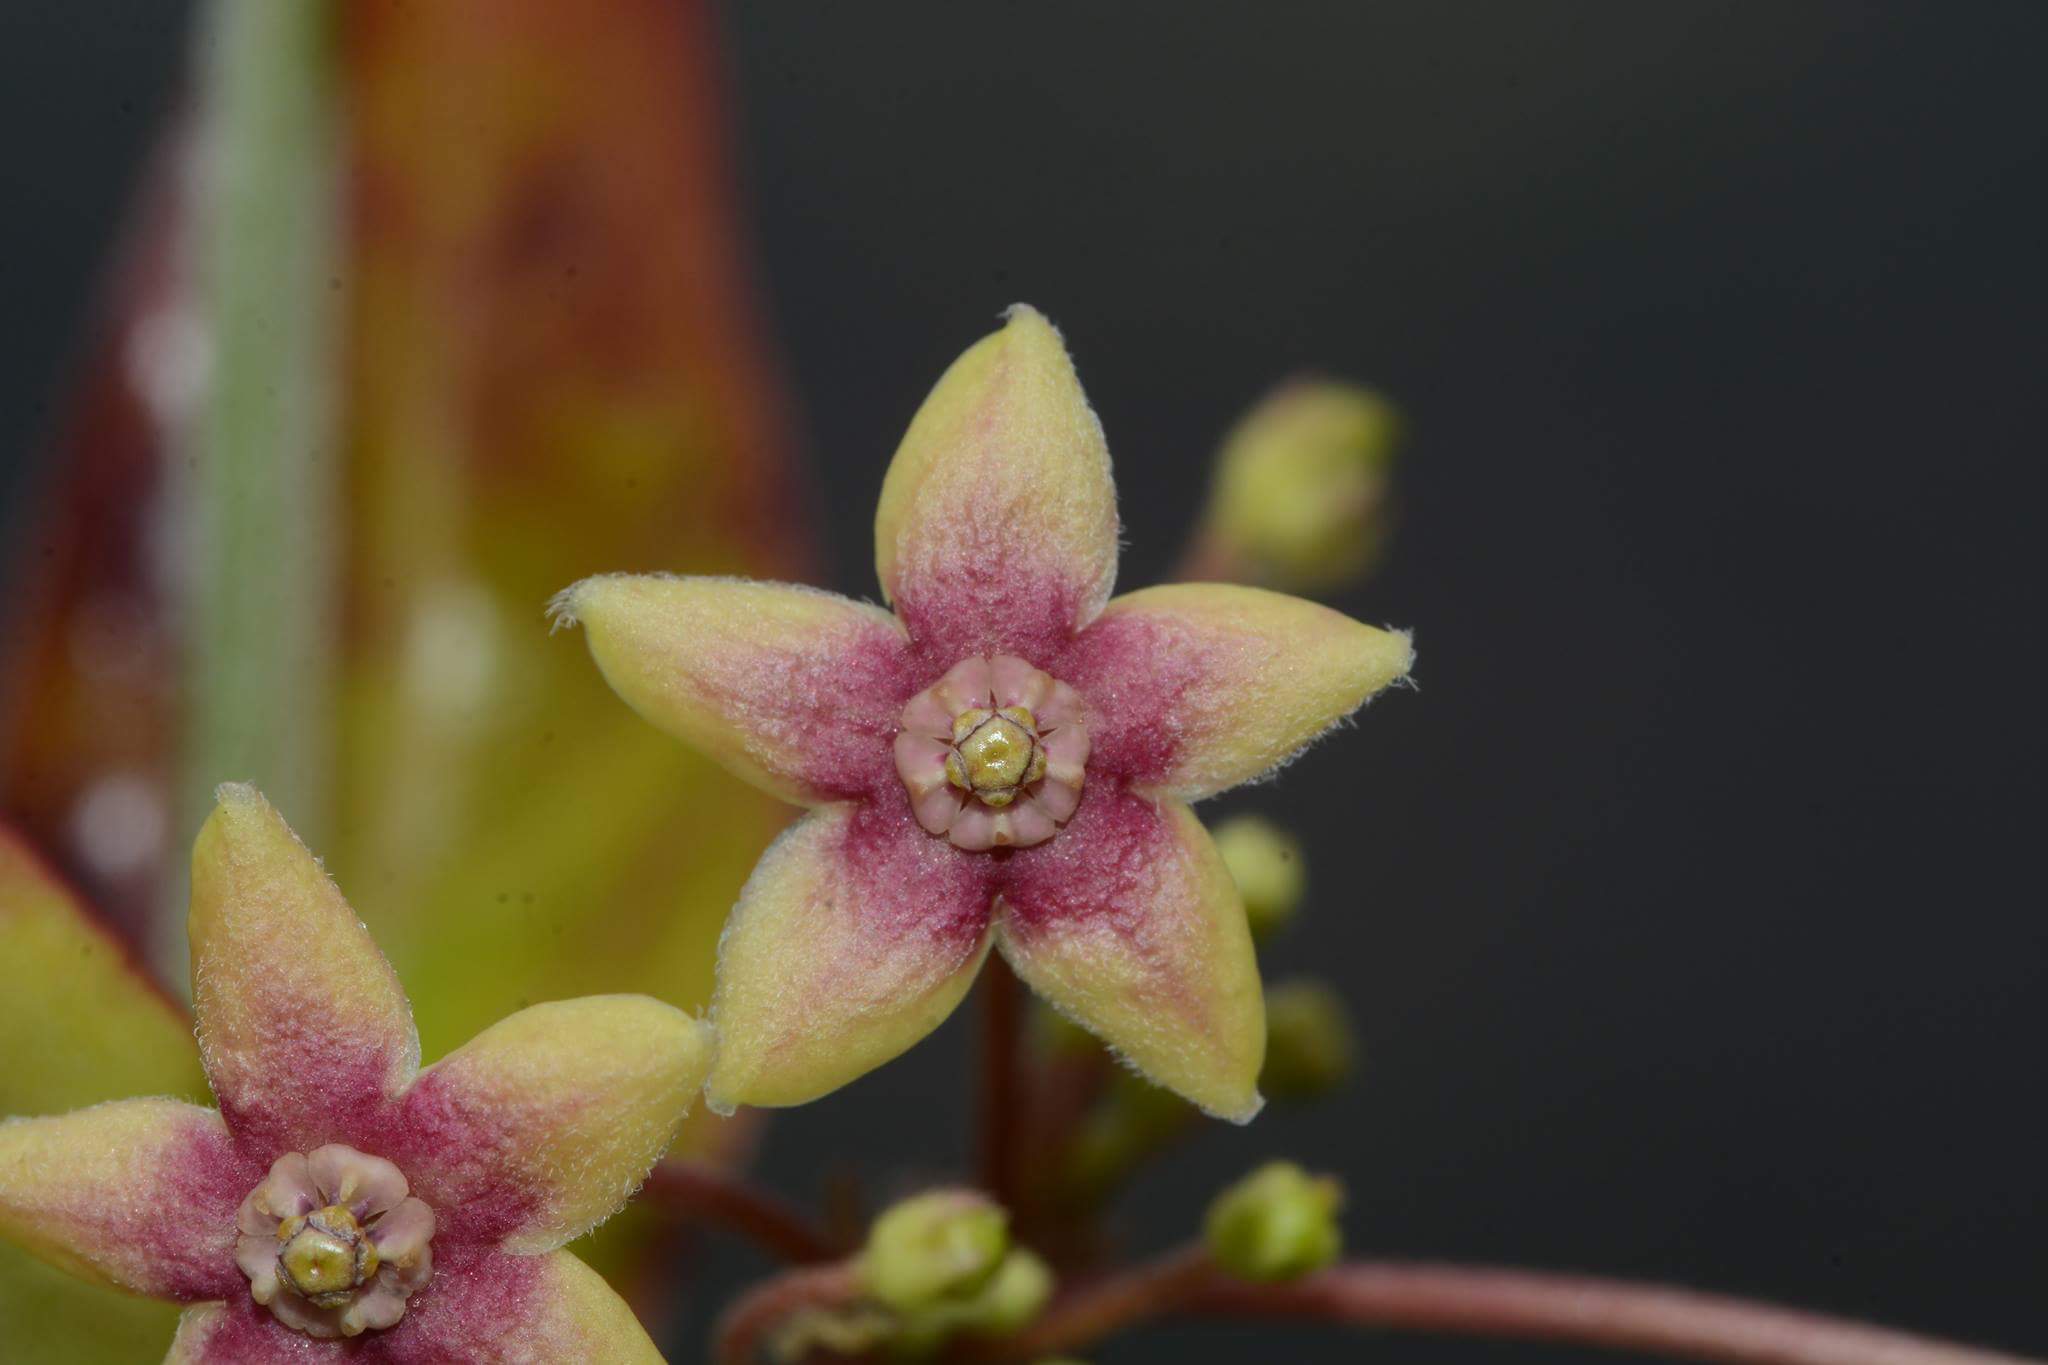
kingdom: Plantae
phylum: Tracheophyta
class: Magnoliopsida
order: Gentianales
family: Apocynaceae
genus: Vincetoxicum
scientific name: Vincetoxicum indicum
